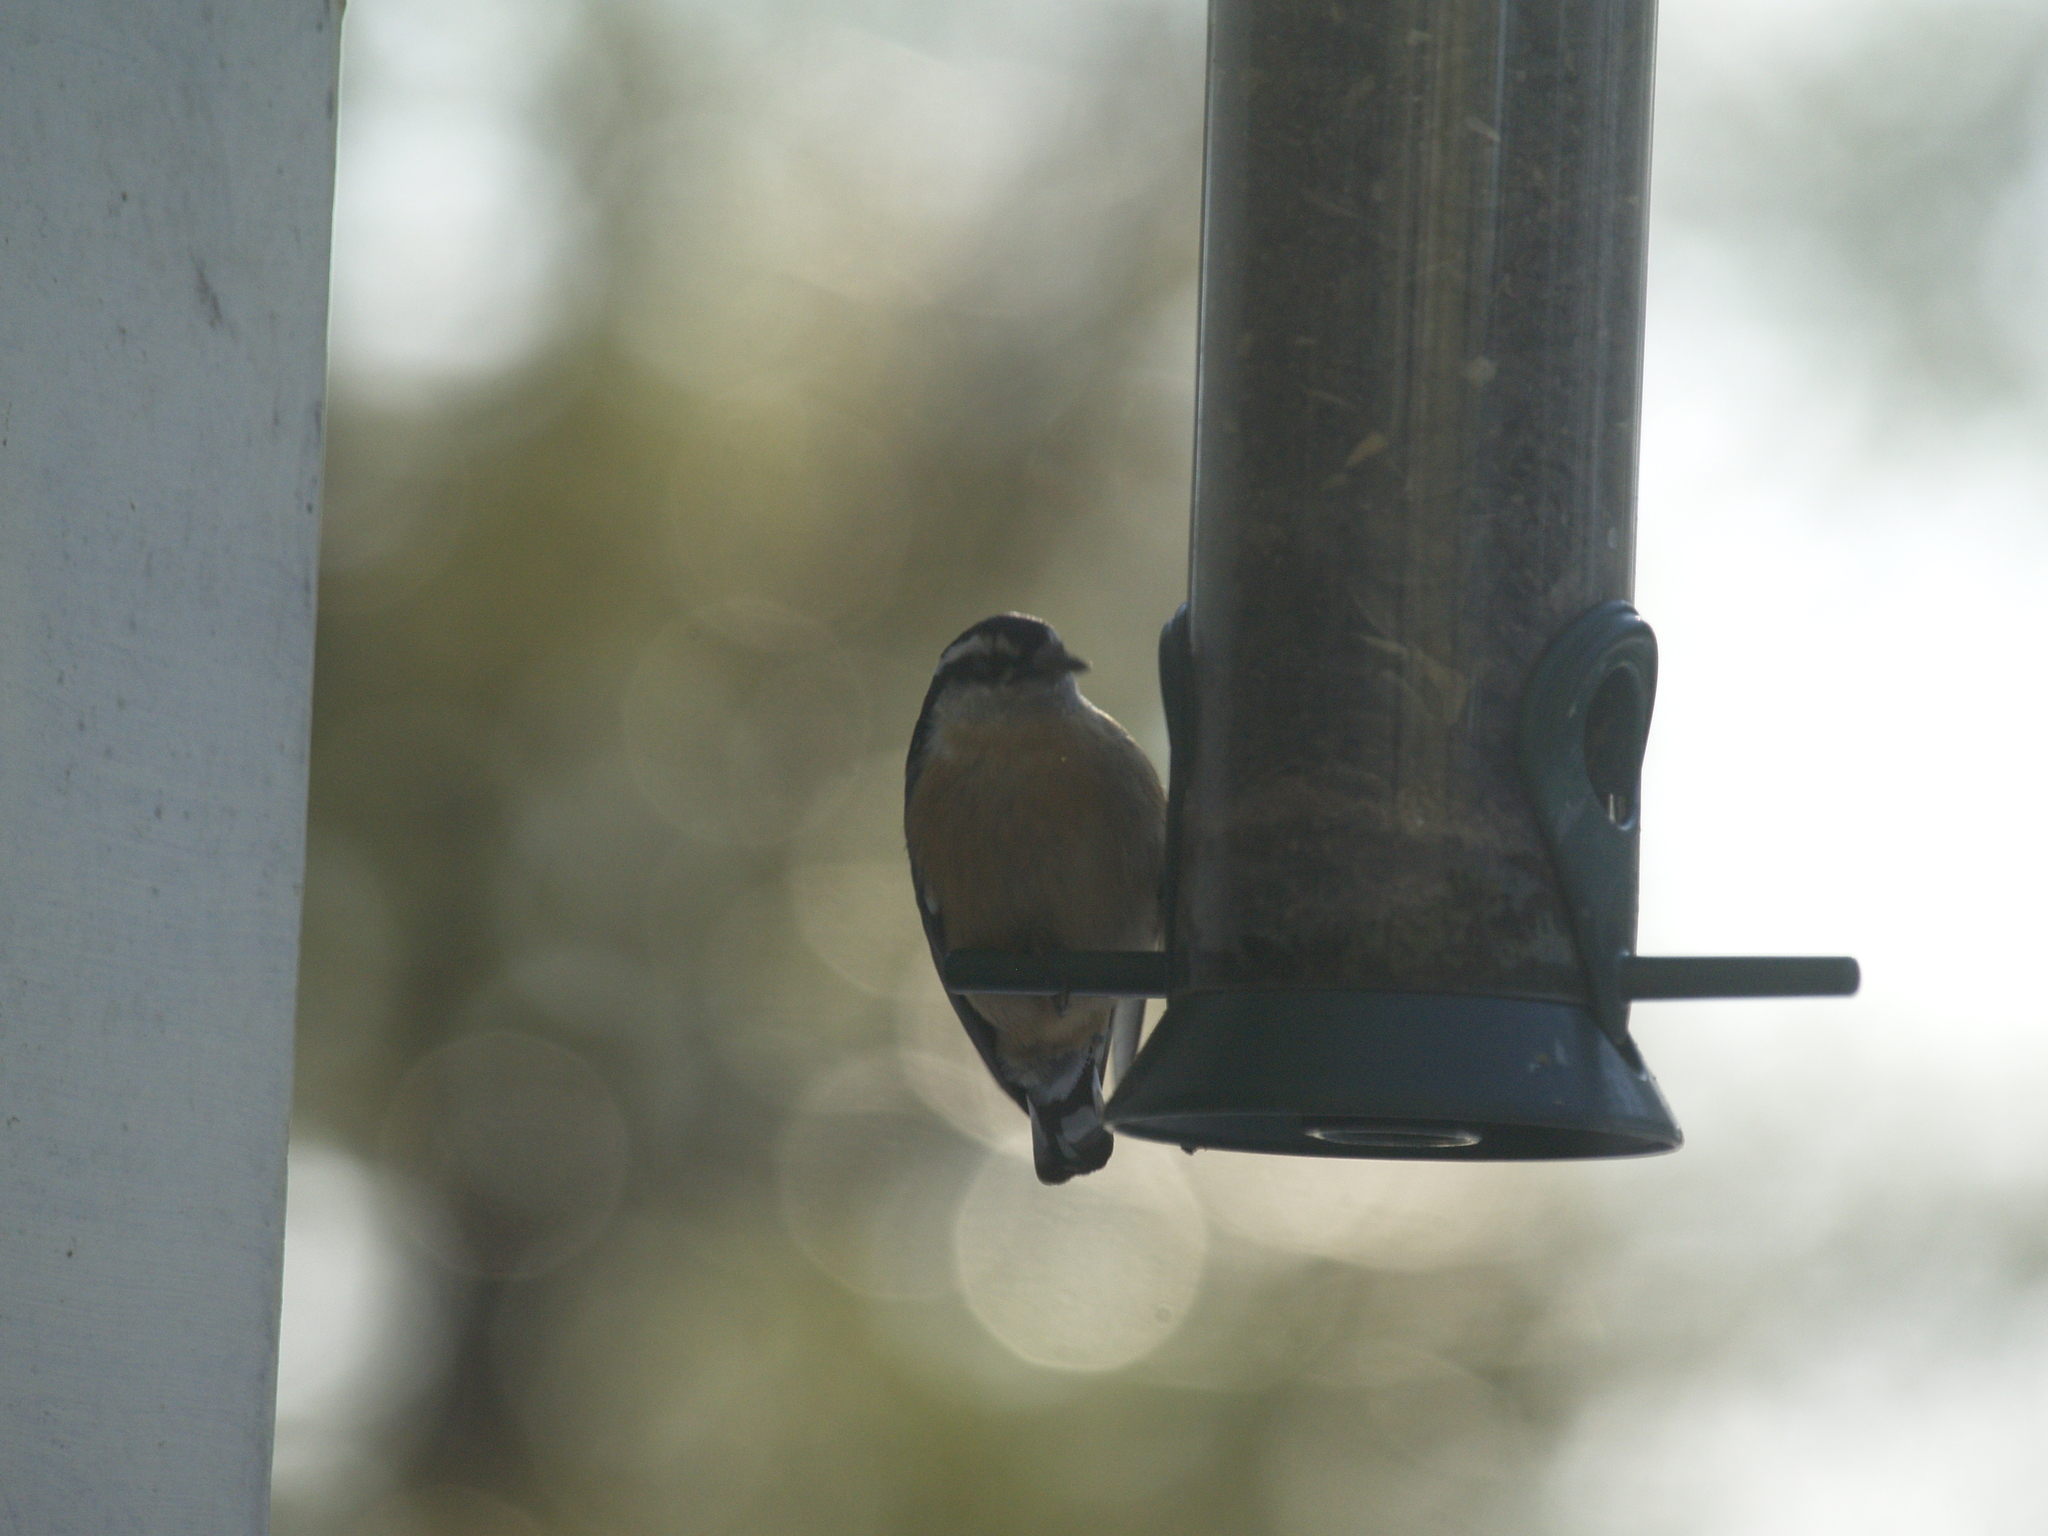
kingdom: Animalia
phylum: Chordata
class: Aves
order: Passeriformes
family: Sittidae
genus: Sitta
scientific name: Sitta canadensis
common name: Red-breasted nuthatch
